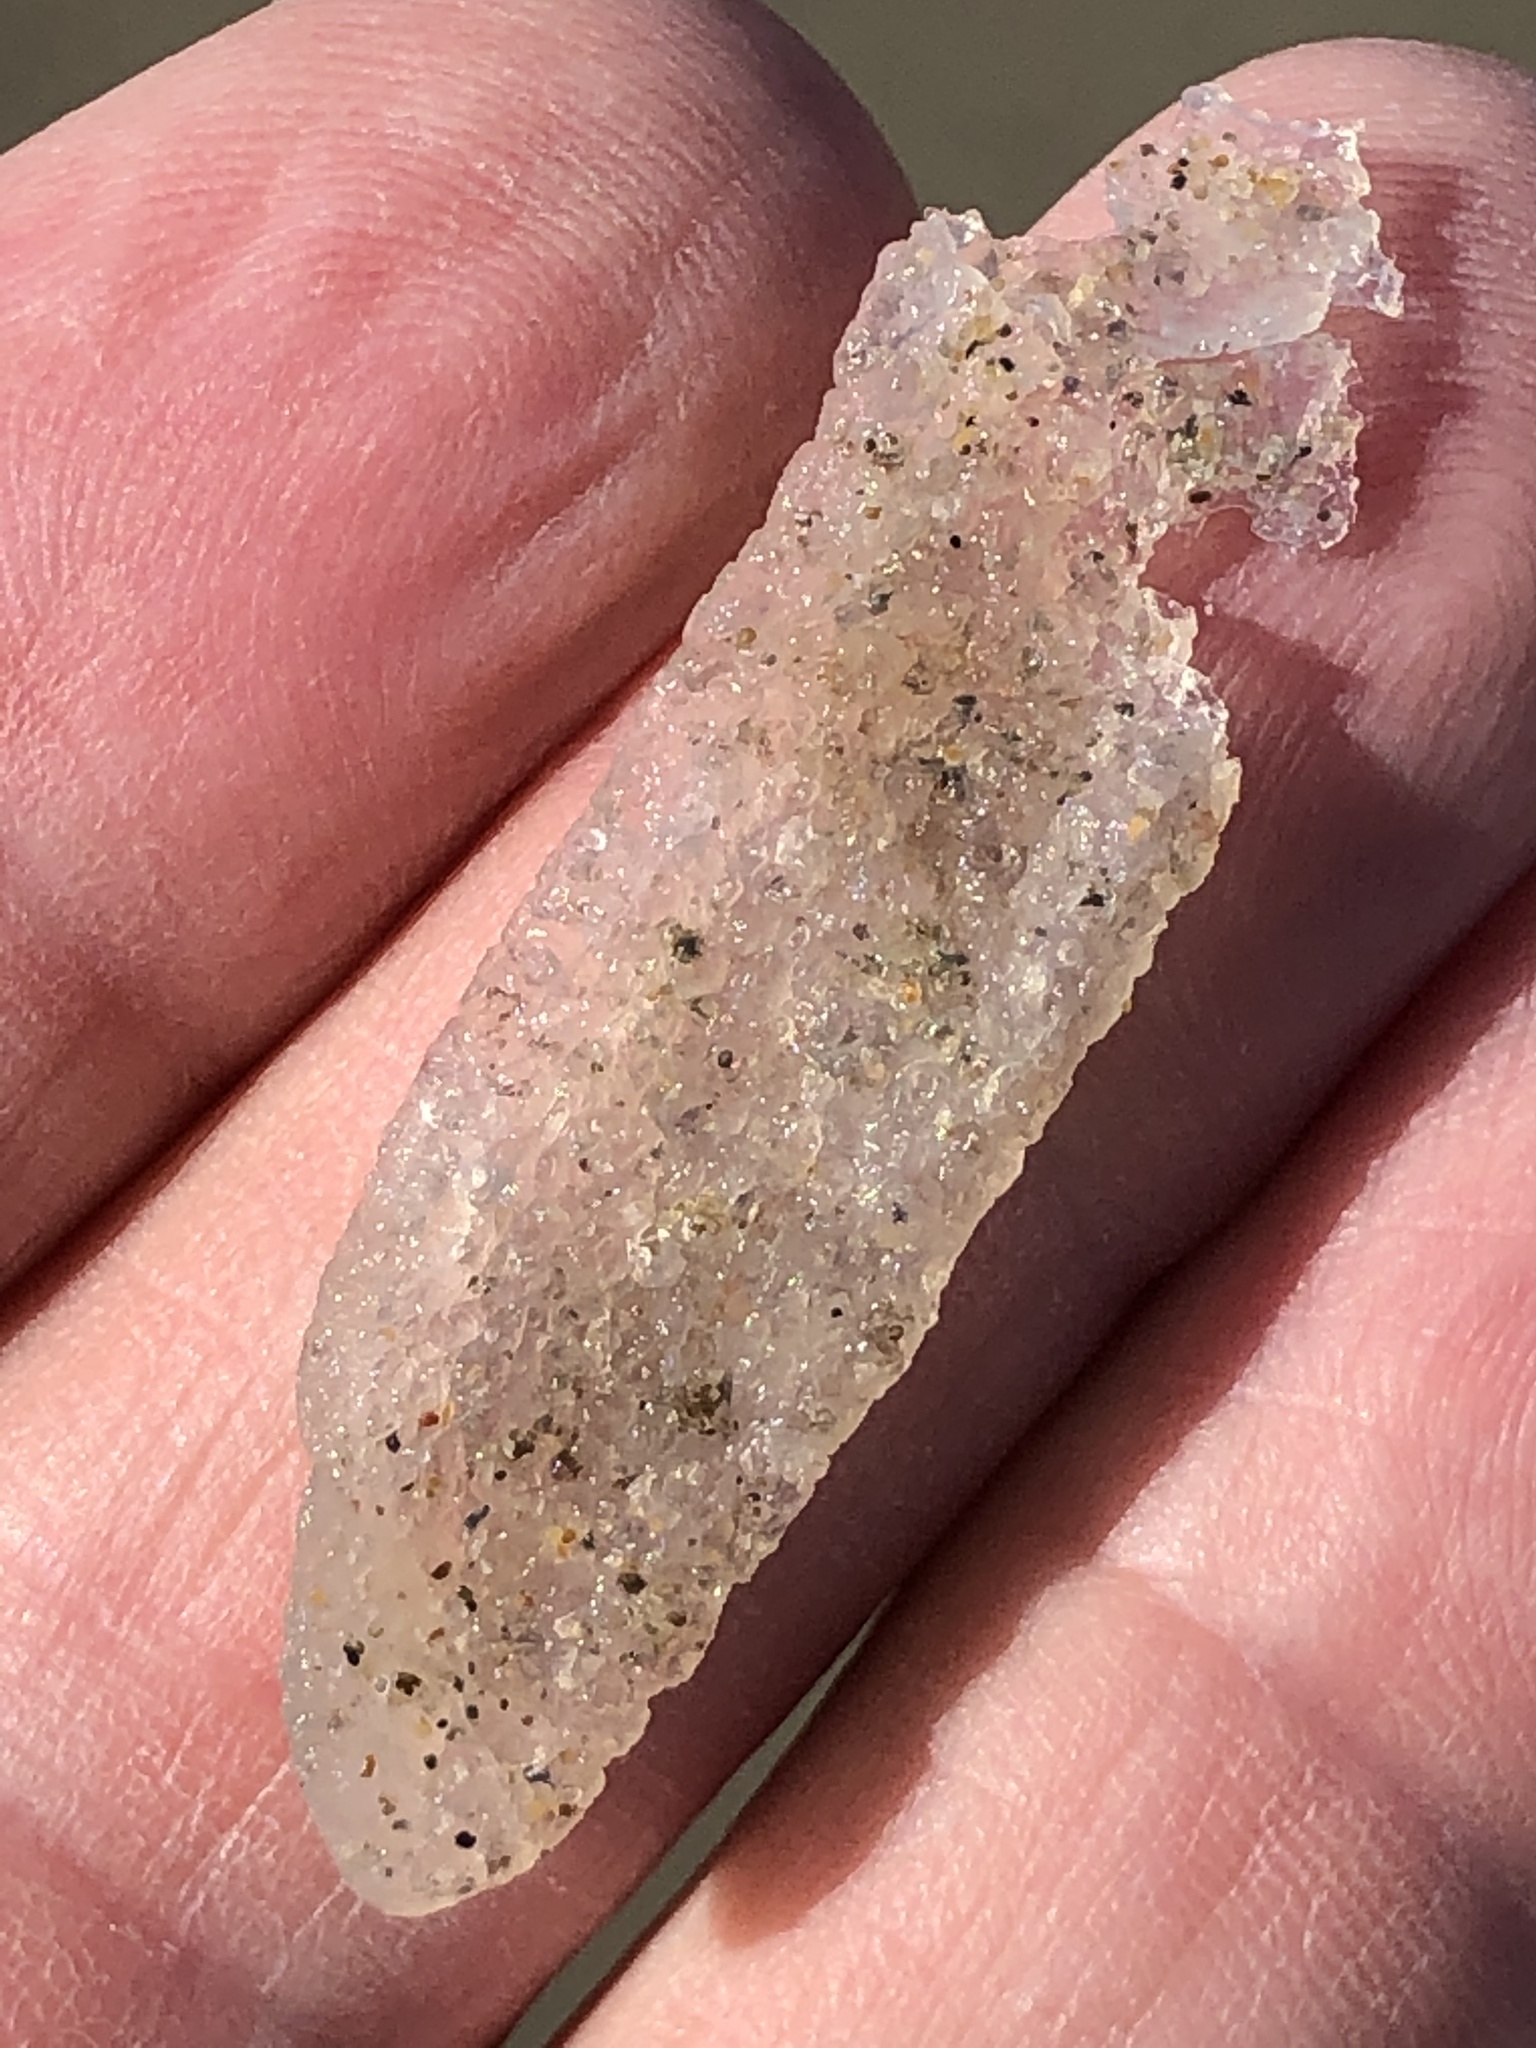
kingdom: Animalia
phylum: Chordata
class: Thaliacea
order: Pyrosomatida
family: Pyrosomatidae
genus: Pyrosoma
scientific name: Pyrosoma atlanticum
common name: Atlantic pyrosomes
